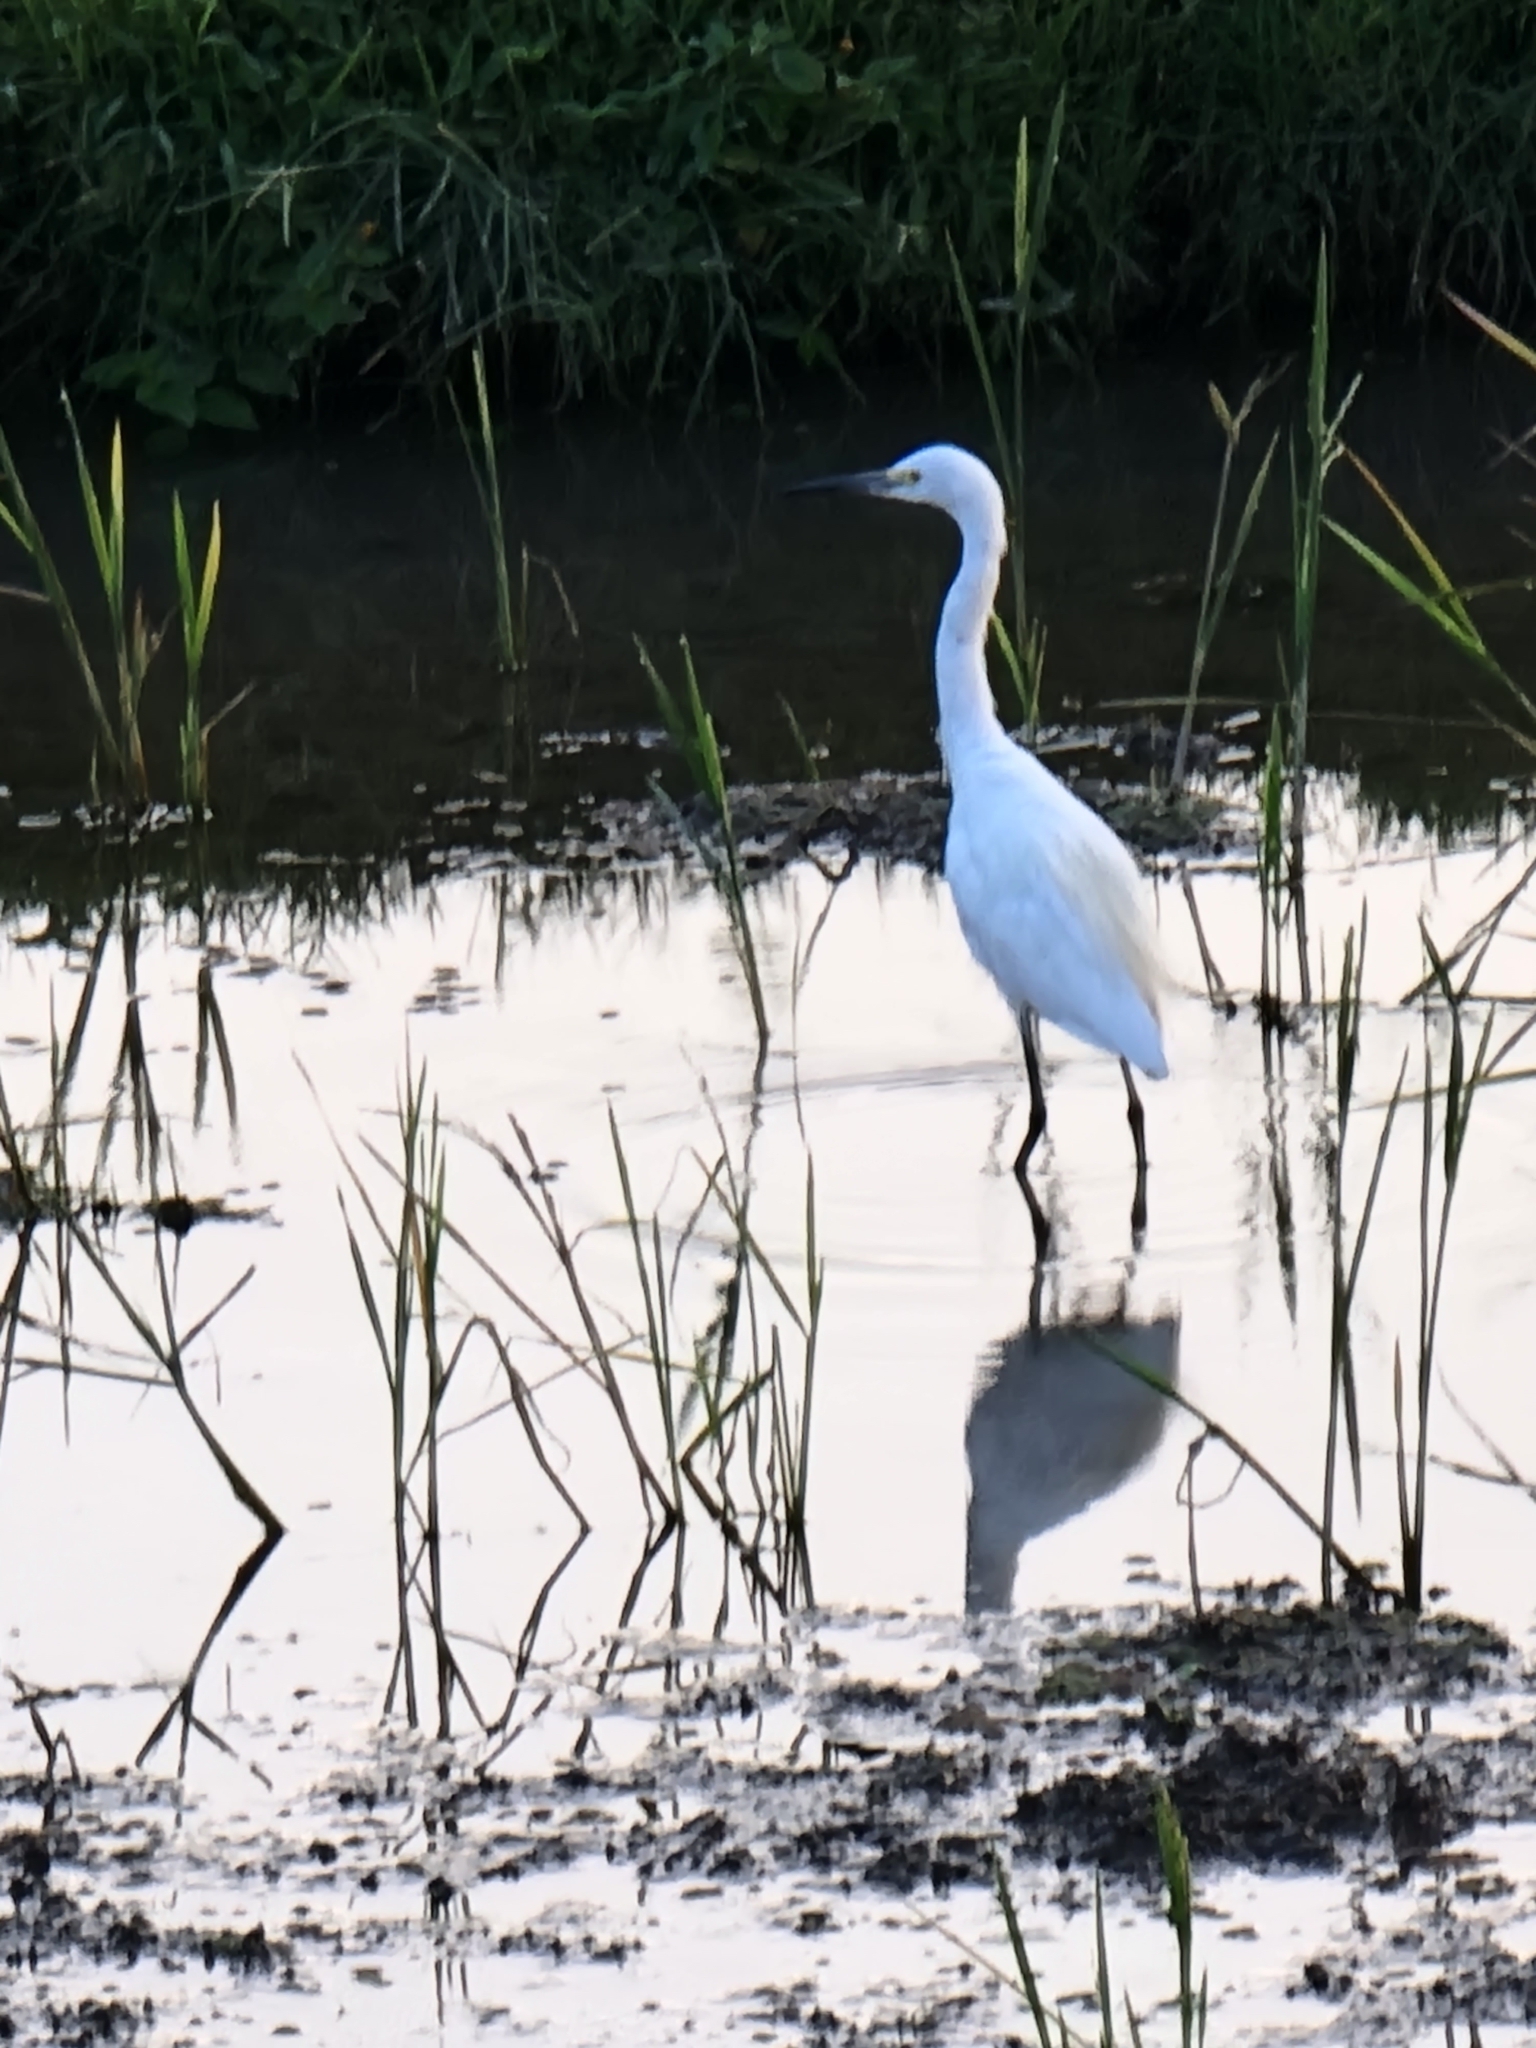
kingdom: Animalia
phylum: Chordata
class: Aves
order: Pelecaniformes
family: Ardeidae
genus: Egretta
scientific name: Egretta garzetta
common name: Little egret
